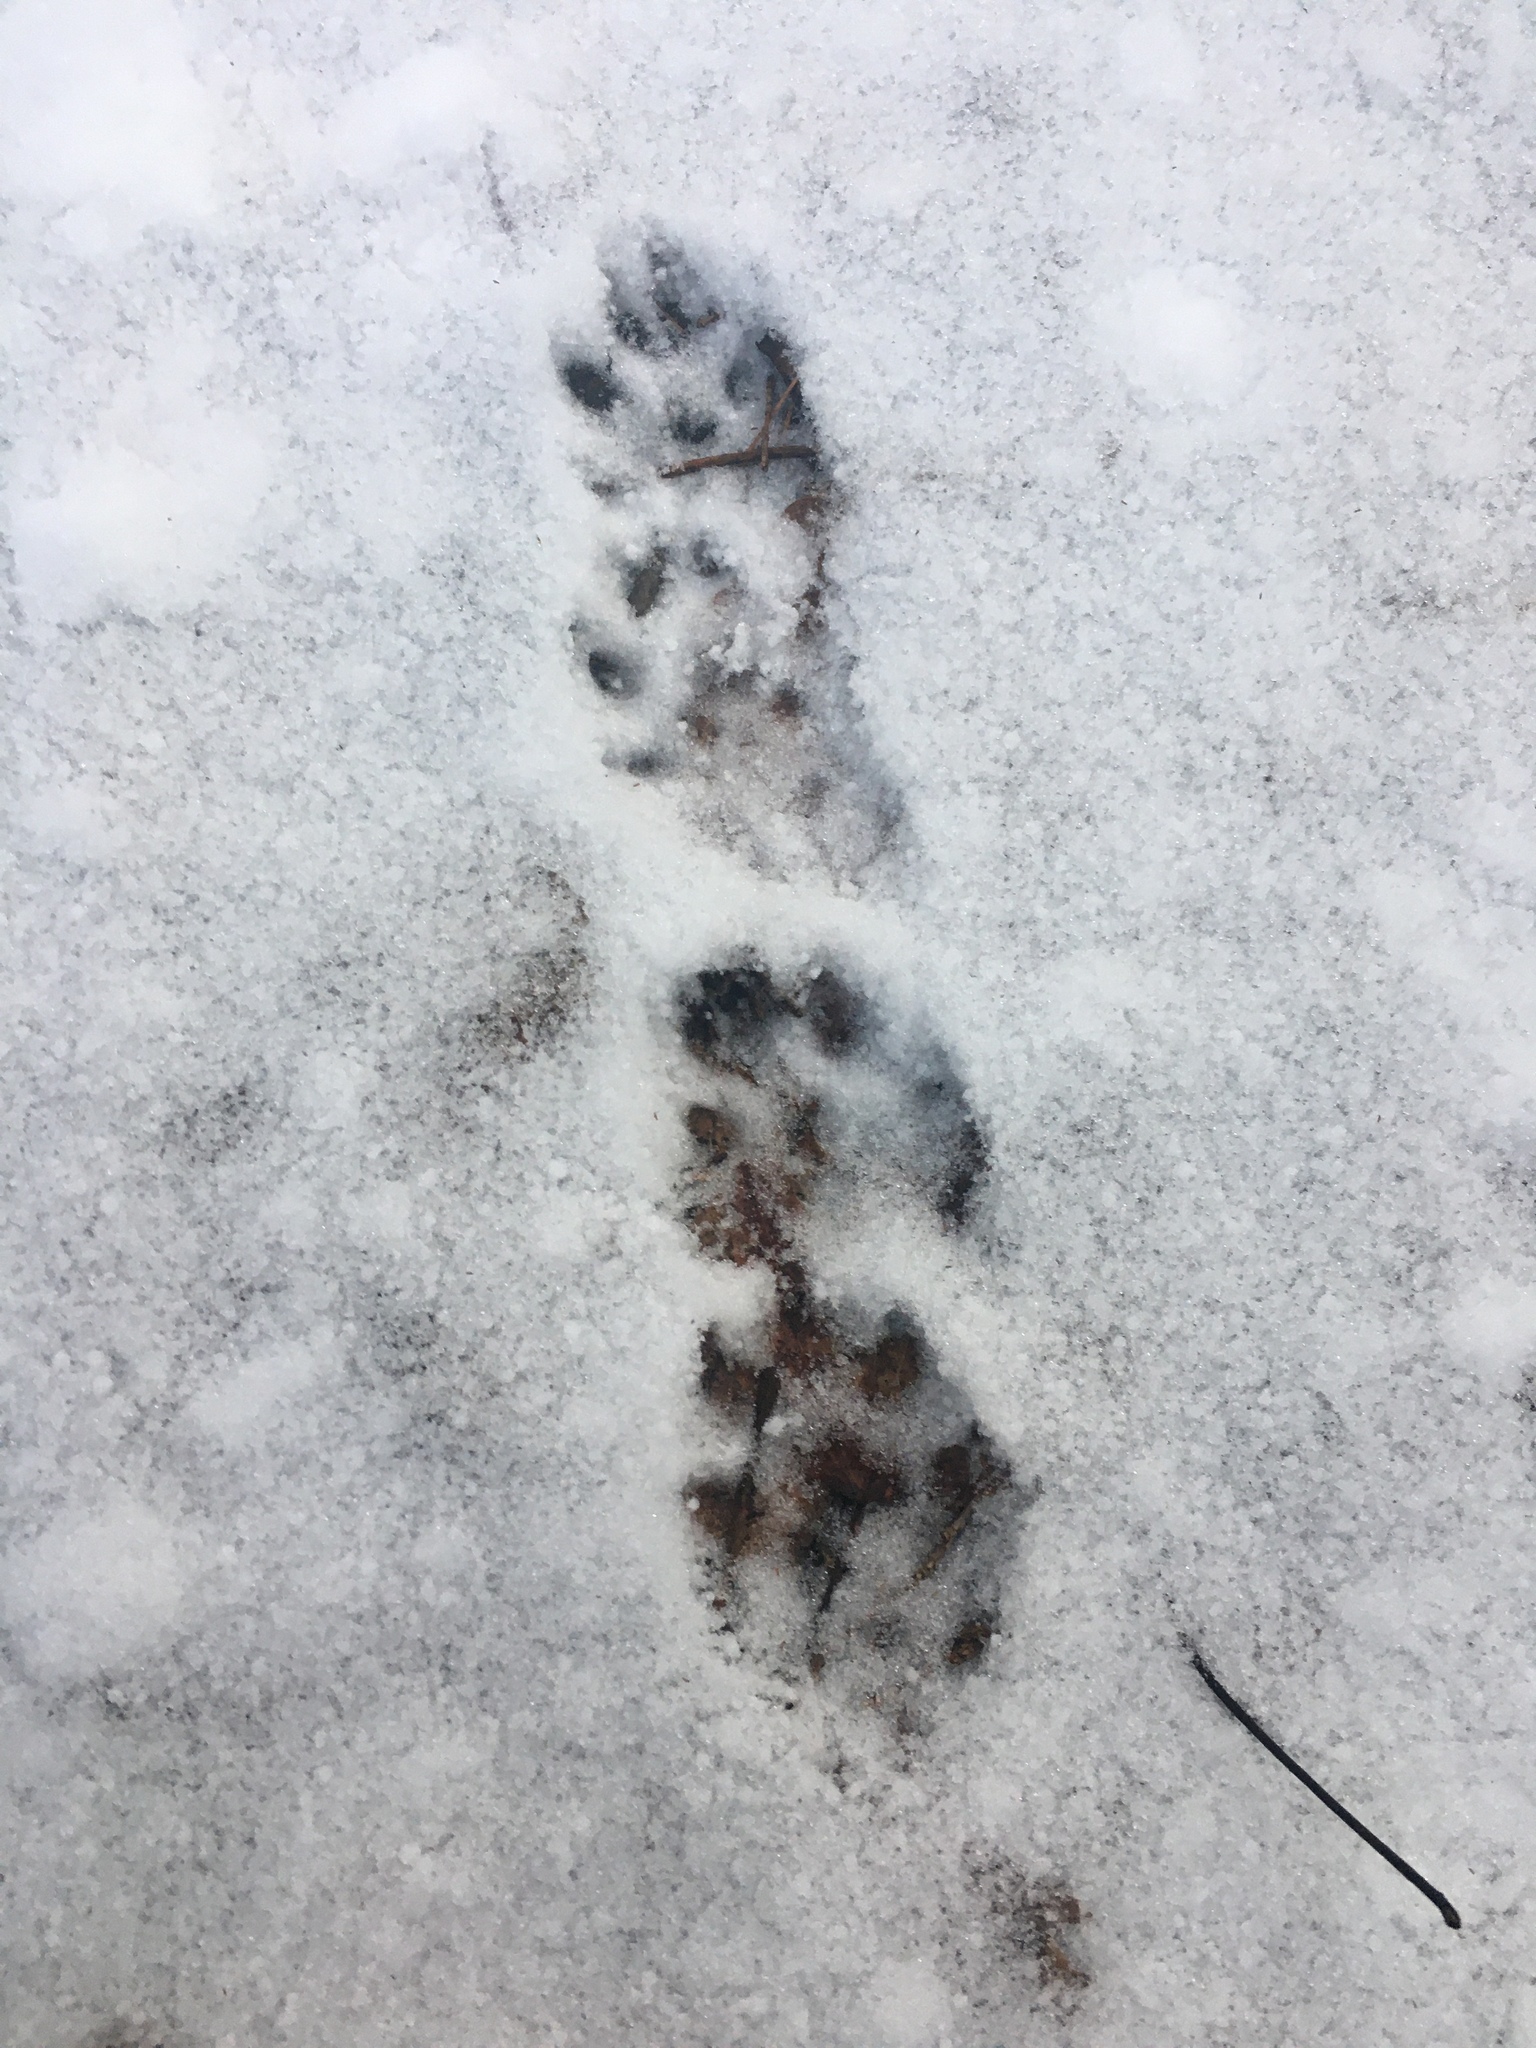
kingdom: Animalia
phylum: Chordata
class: Mammalia
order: Carnivora
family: Mustelidae
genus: Pekania
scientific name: Pekania pennanti
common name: Fisher
